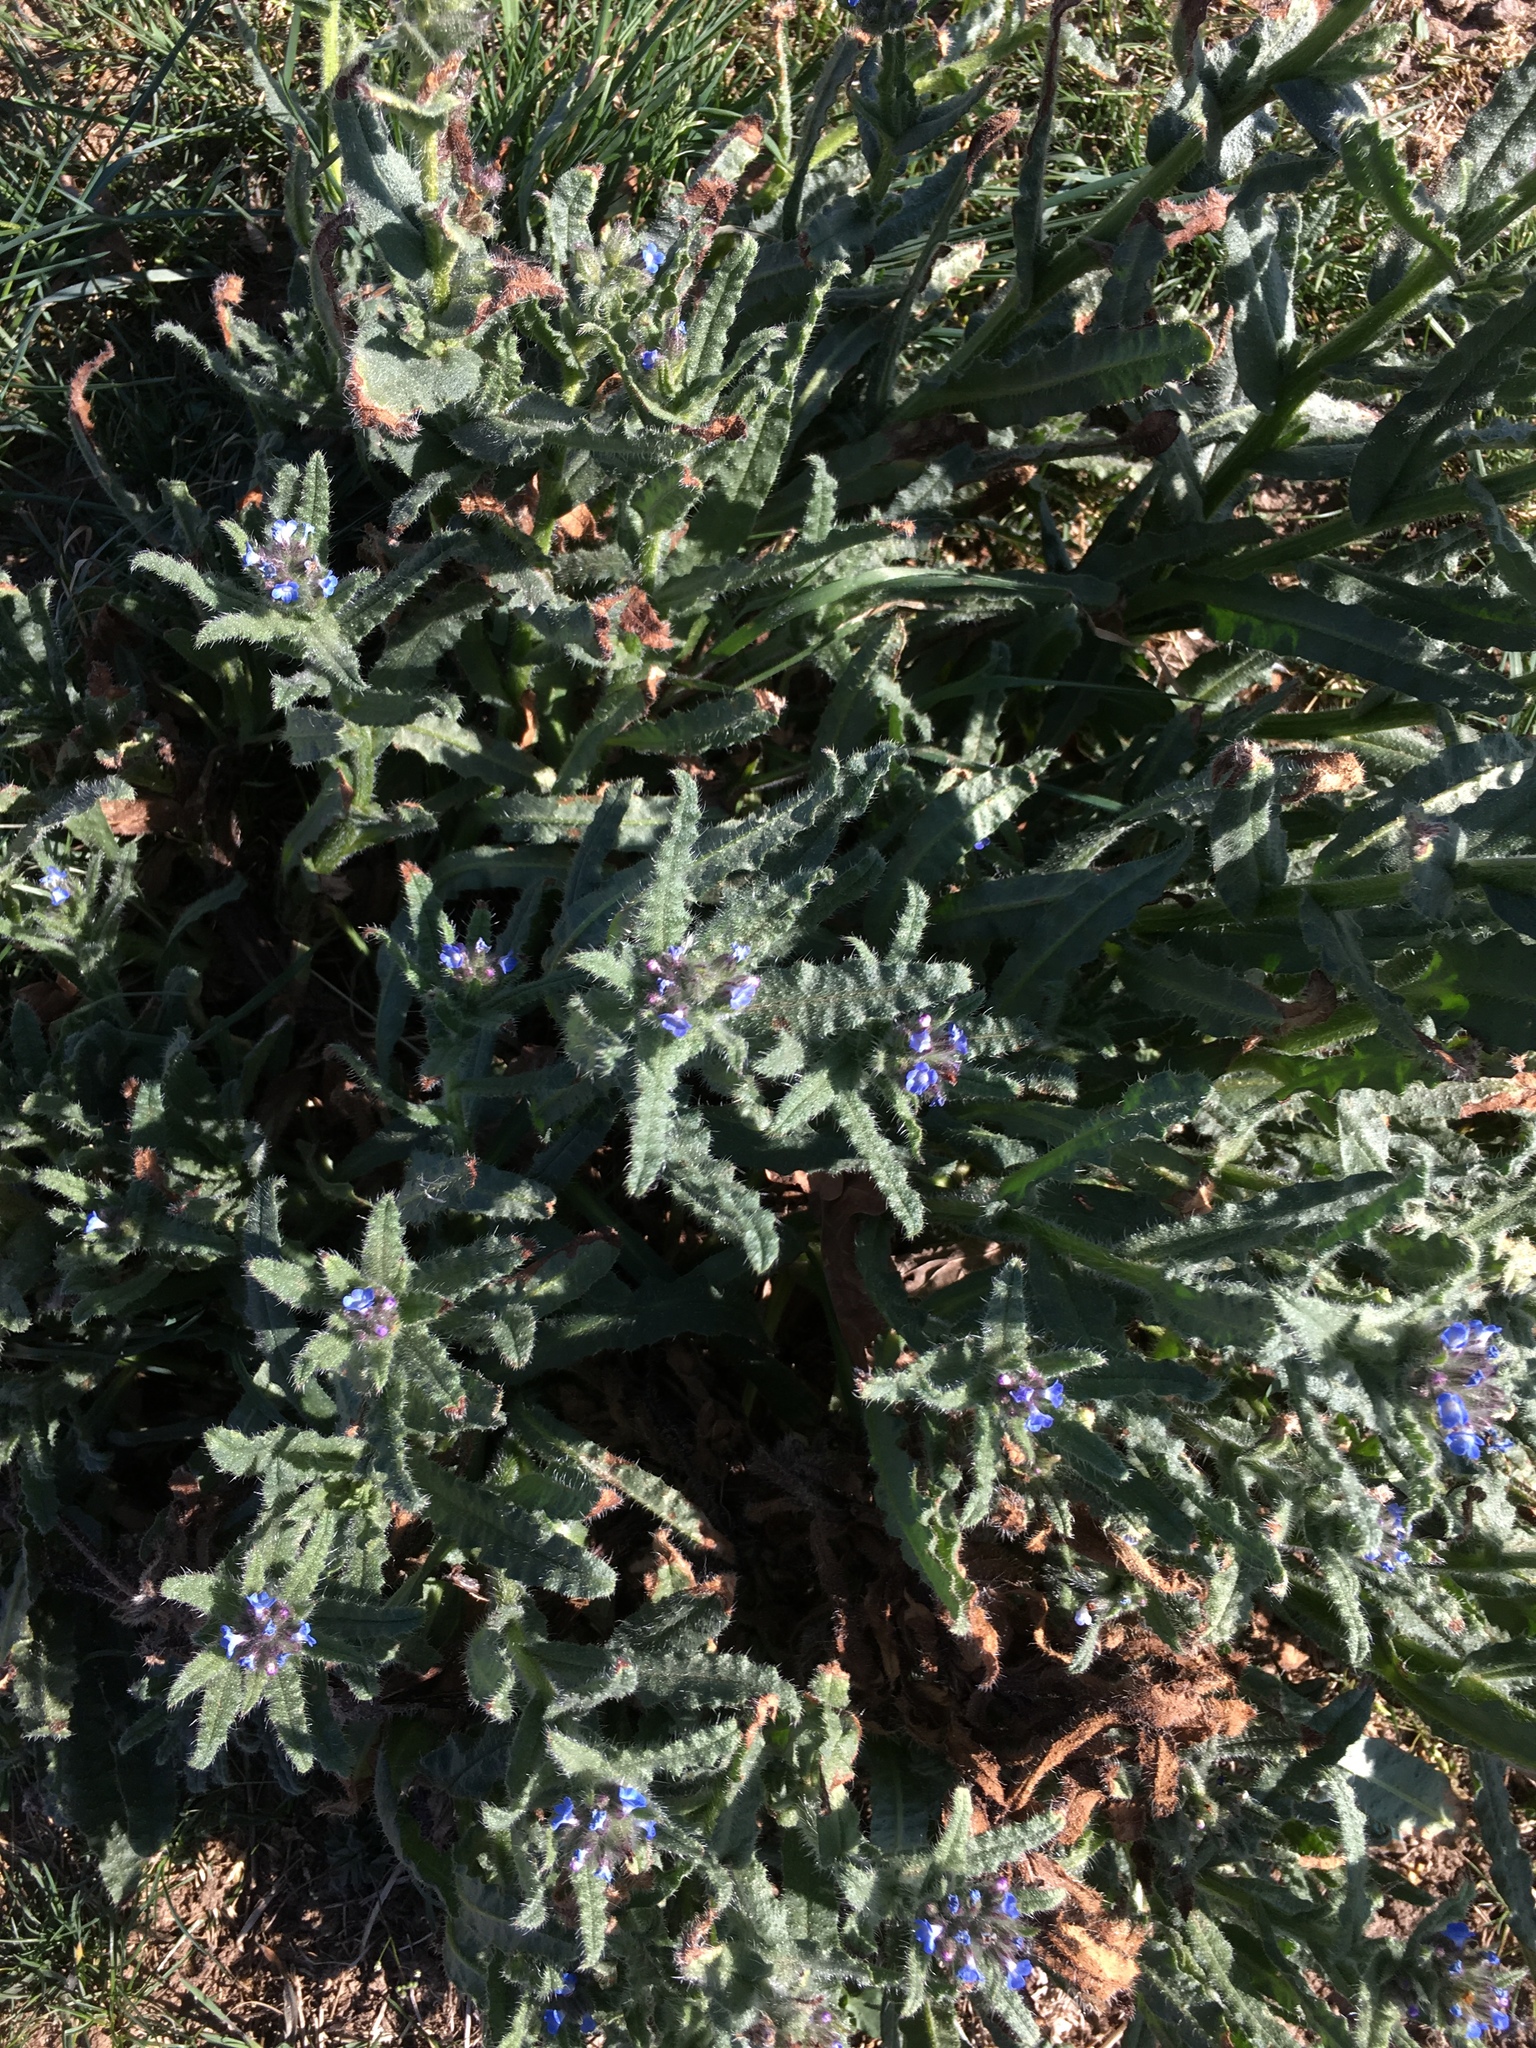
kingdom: Plantae
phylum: Tracheophyta
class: Magnoliopsida
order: Boraginales
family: Boraginaceae
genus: Lycopsis
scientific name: Lycopsis arvensis
